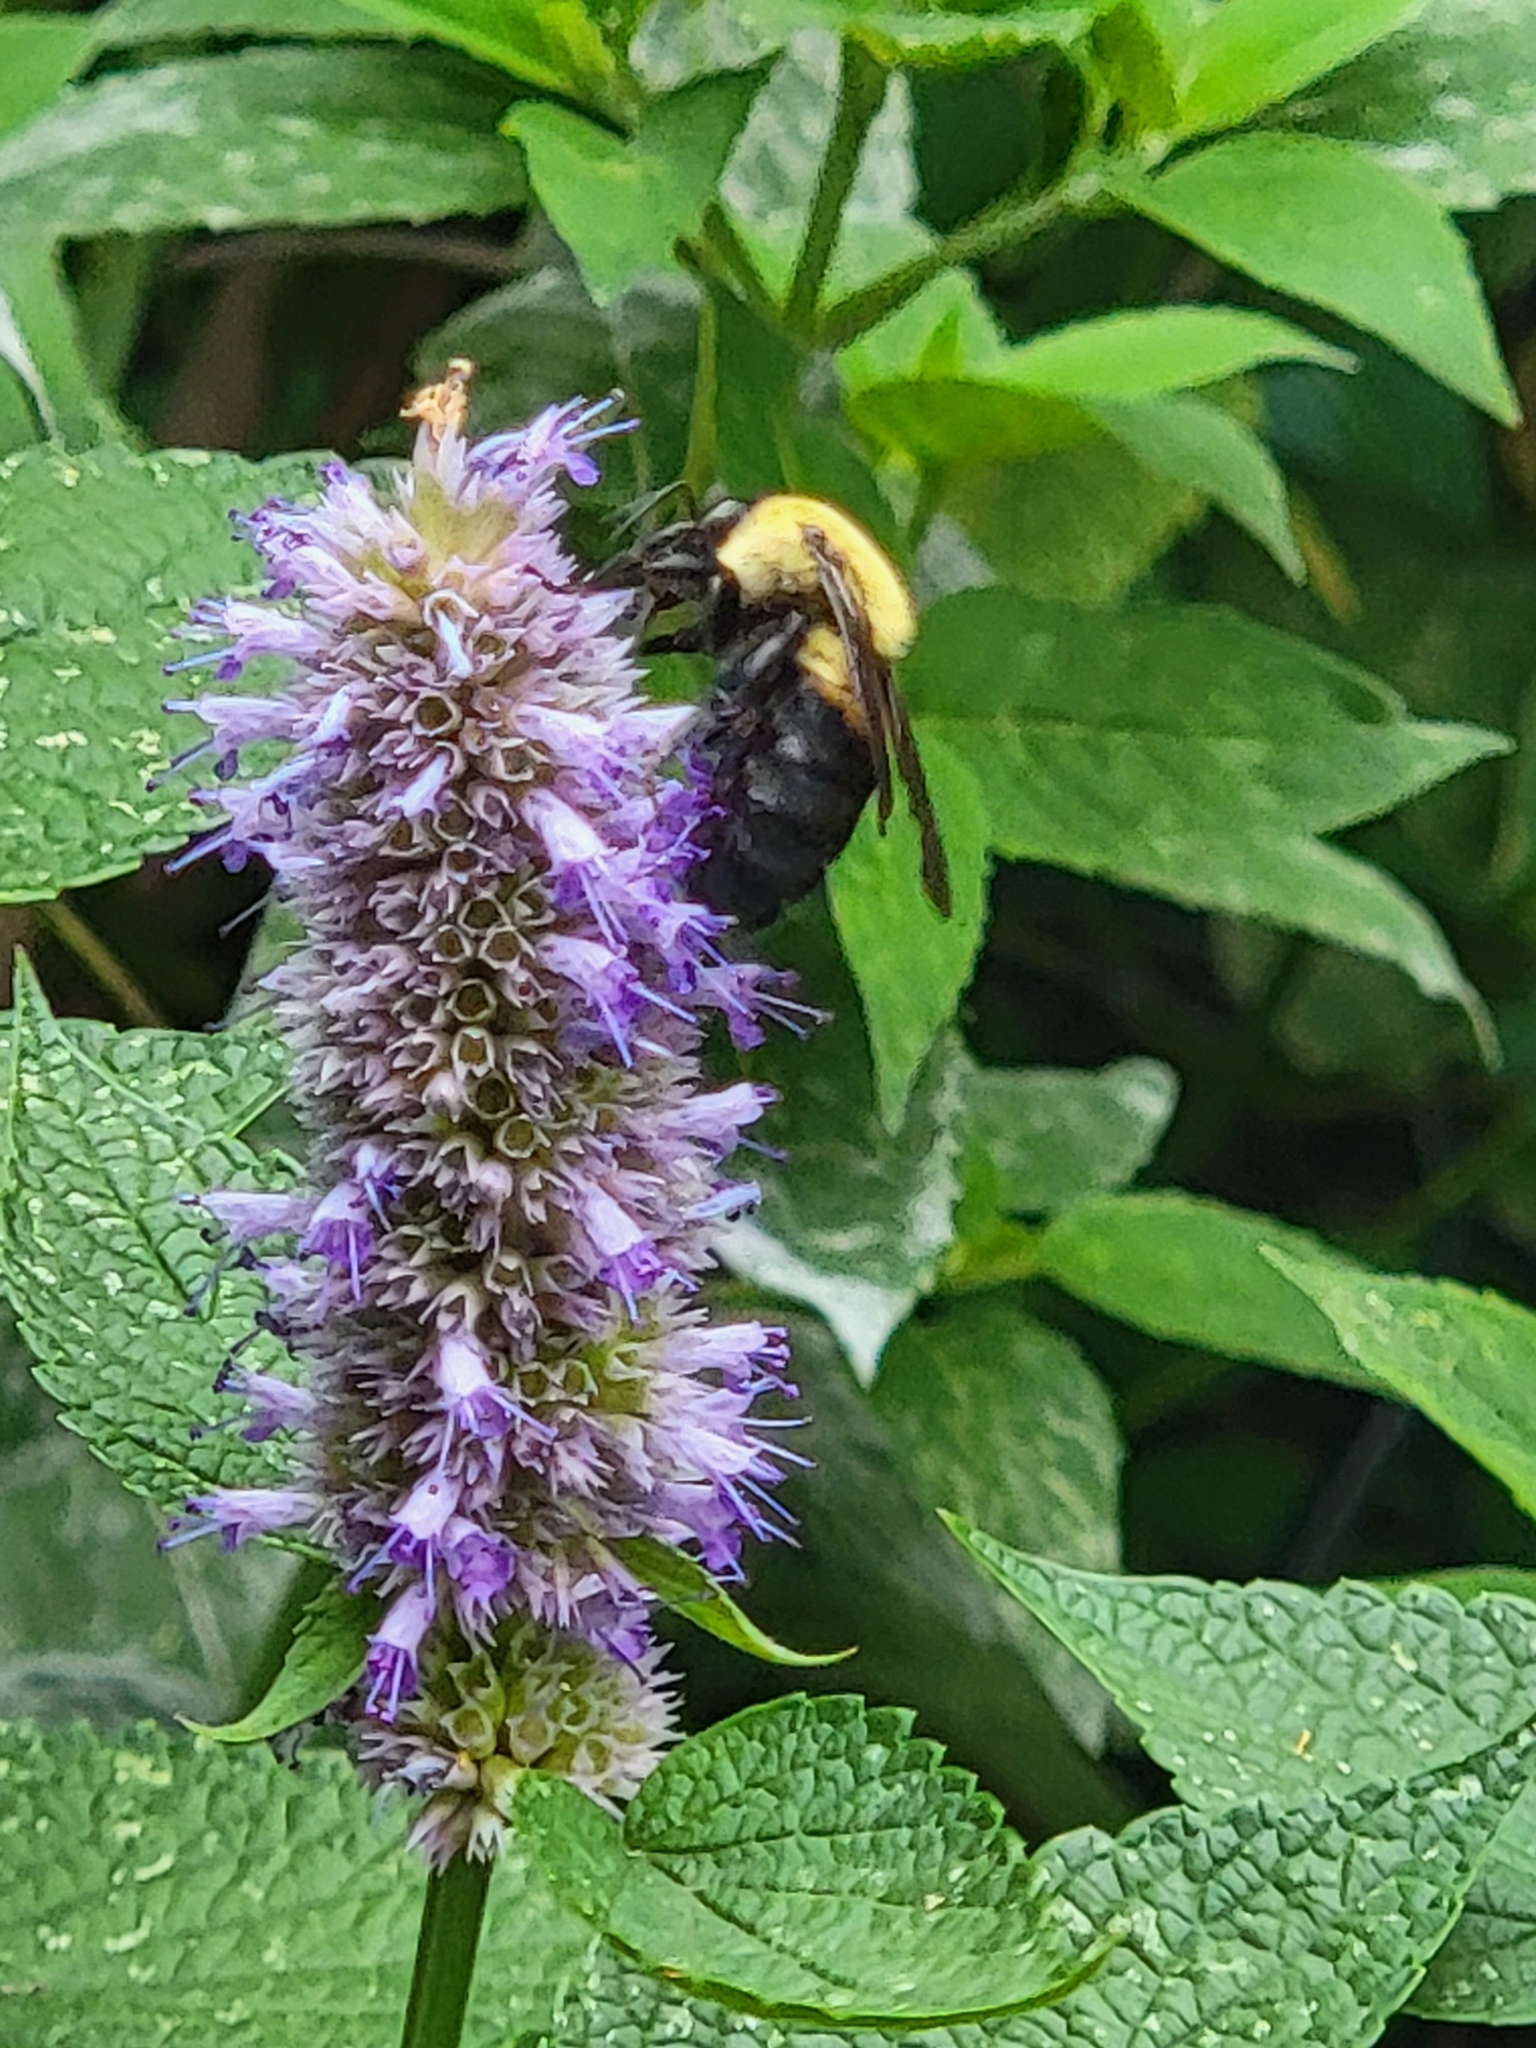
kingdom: Animalia
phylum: Arthropoda
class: Insecta
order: Hymenoptera
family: Apidae
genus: Bombus
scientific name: Bombus griseocollis
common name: Brown-belted bumble bee
